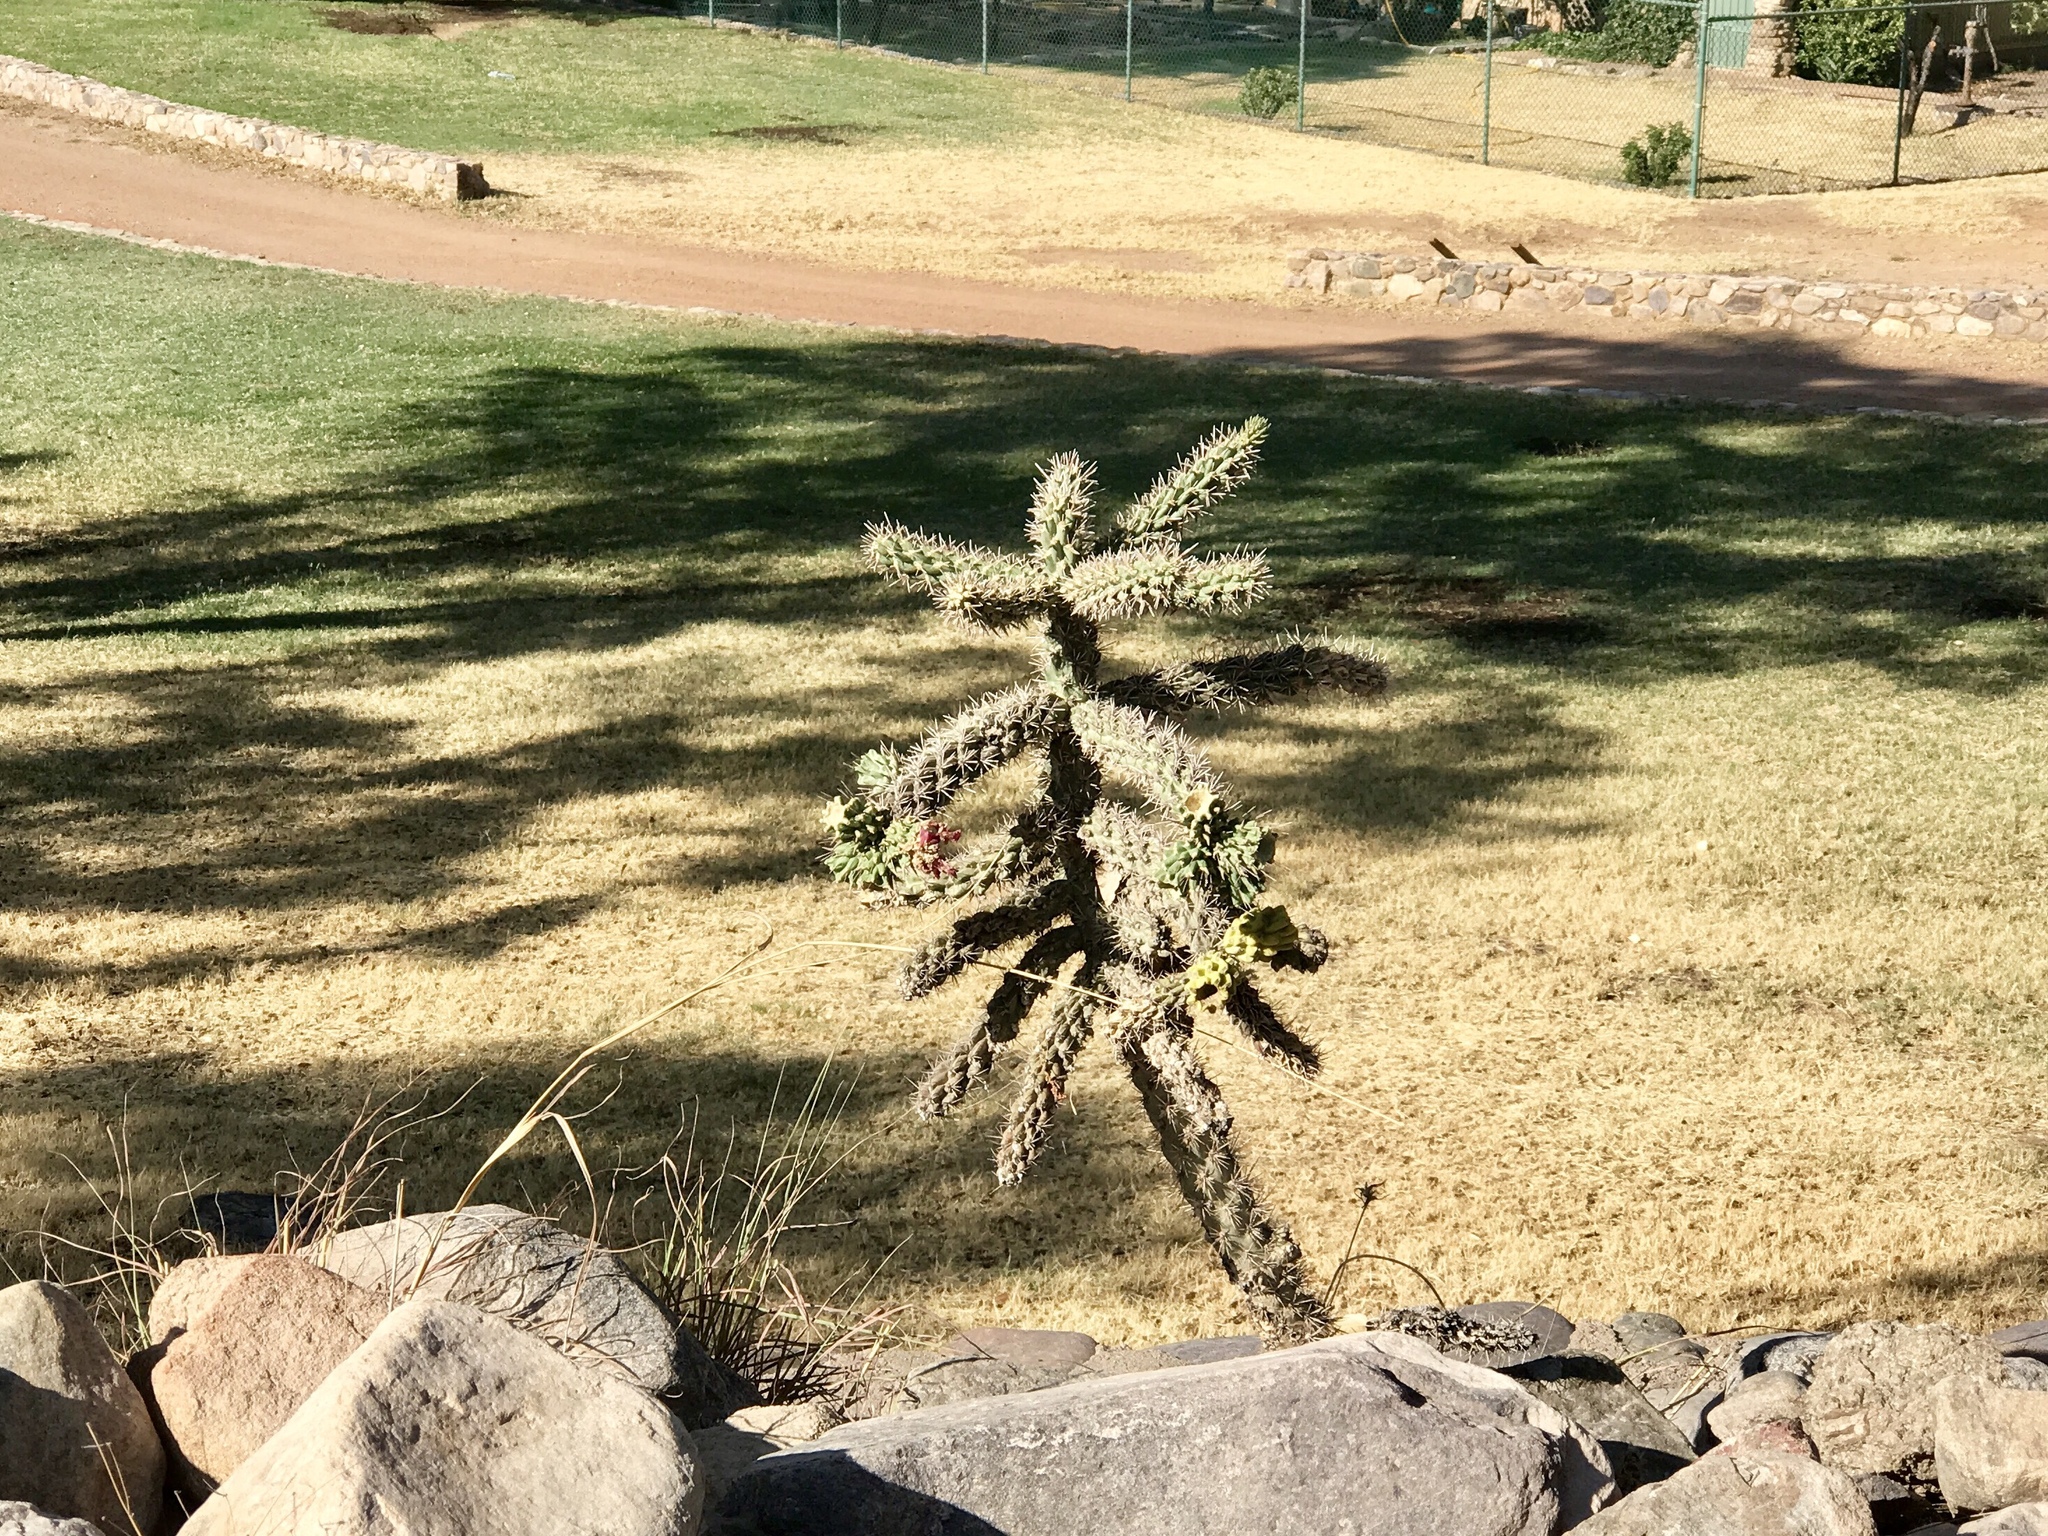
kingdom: Plantae
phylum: Tracheophyta
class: Magnoliopsida
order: Caryophyllales
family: Cactaceae
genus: Cylindropuntia
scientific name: Cylindropuntia imbricata
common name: Candelabrum cactus
